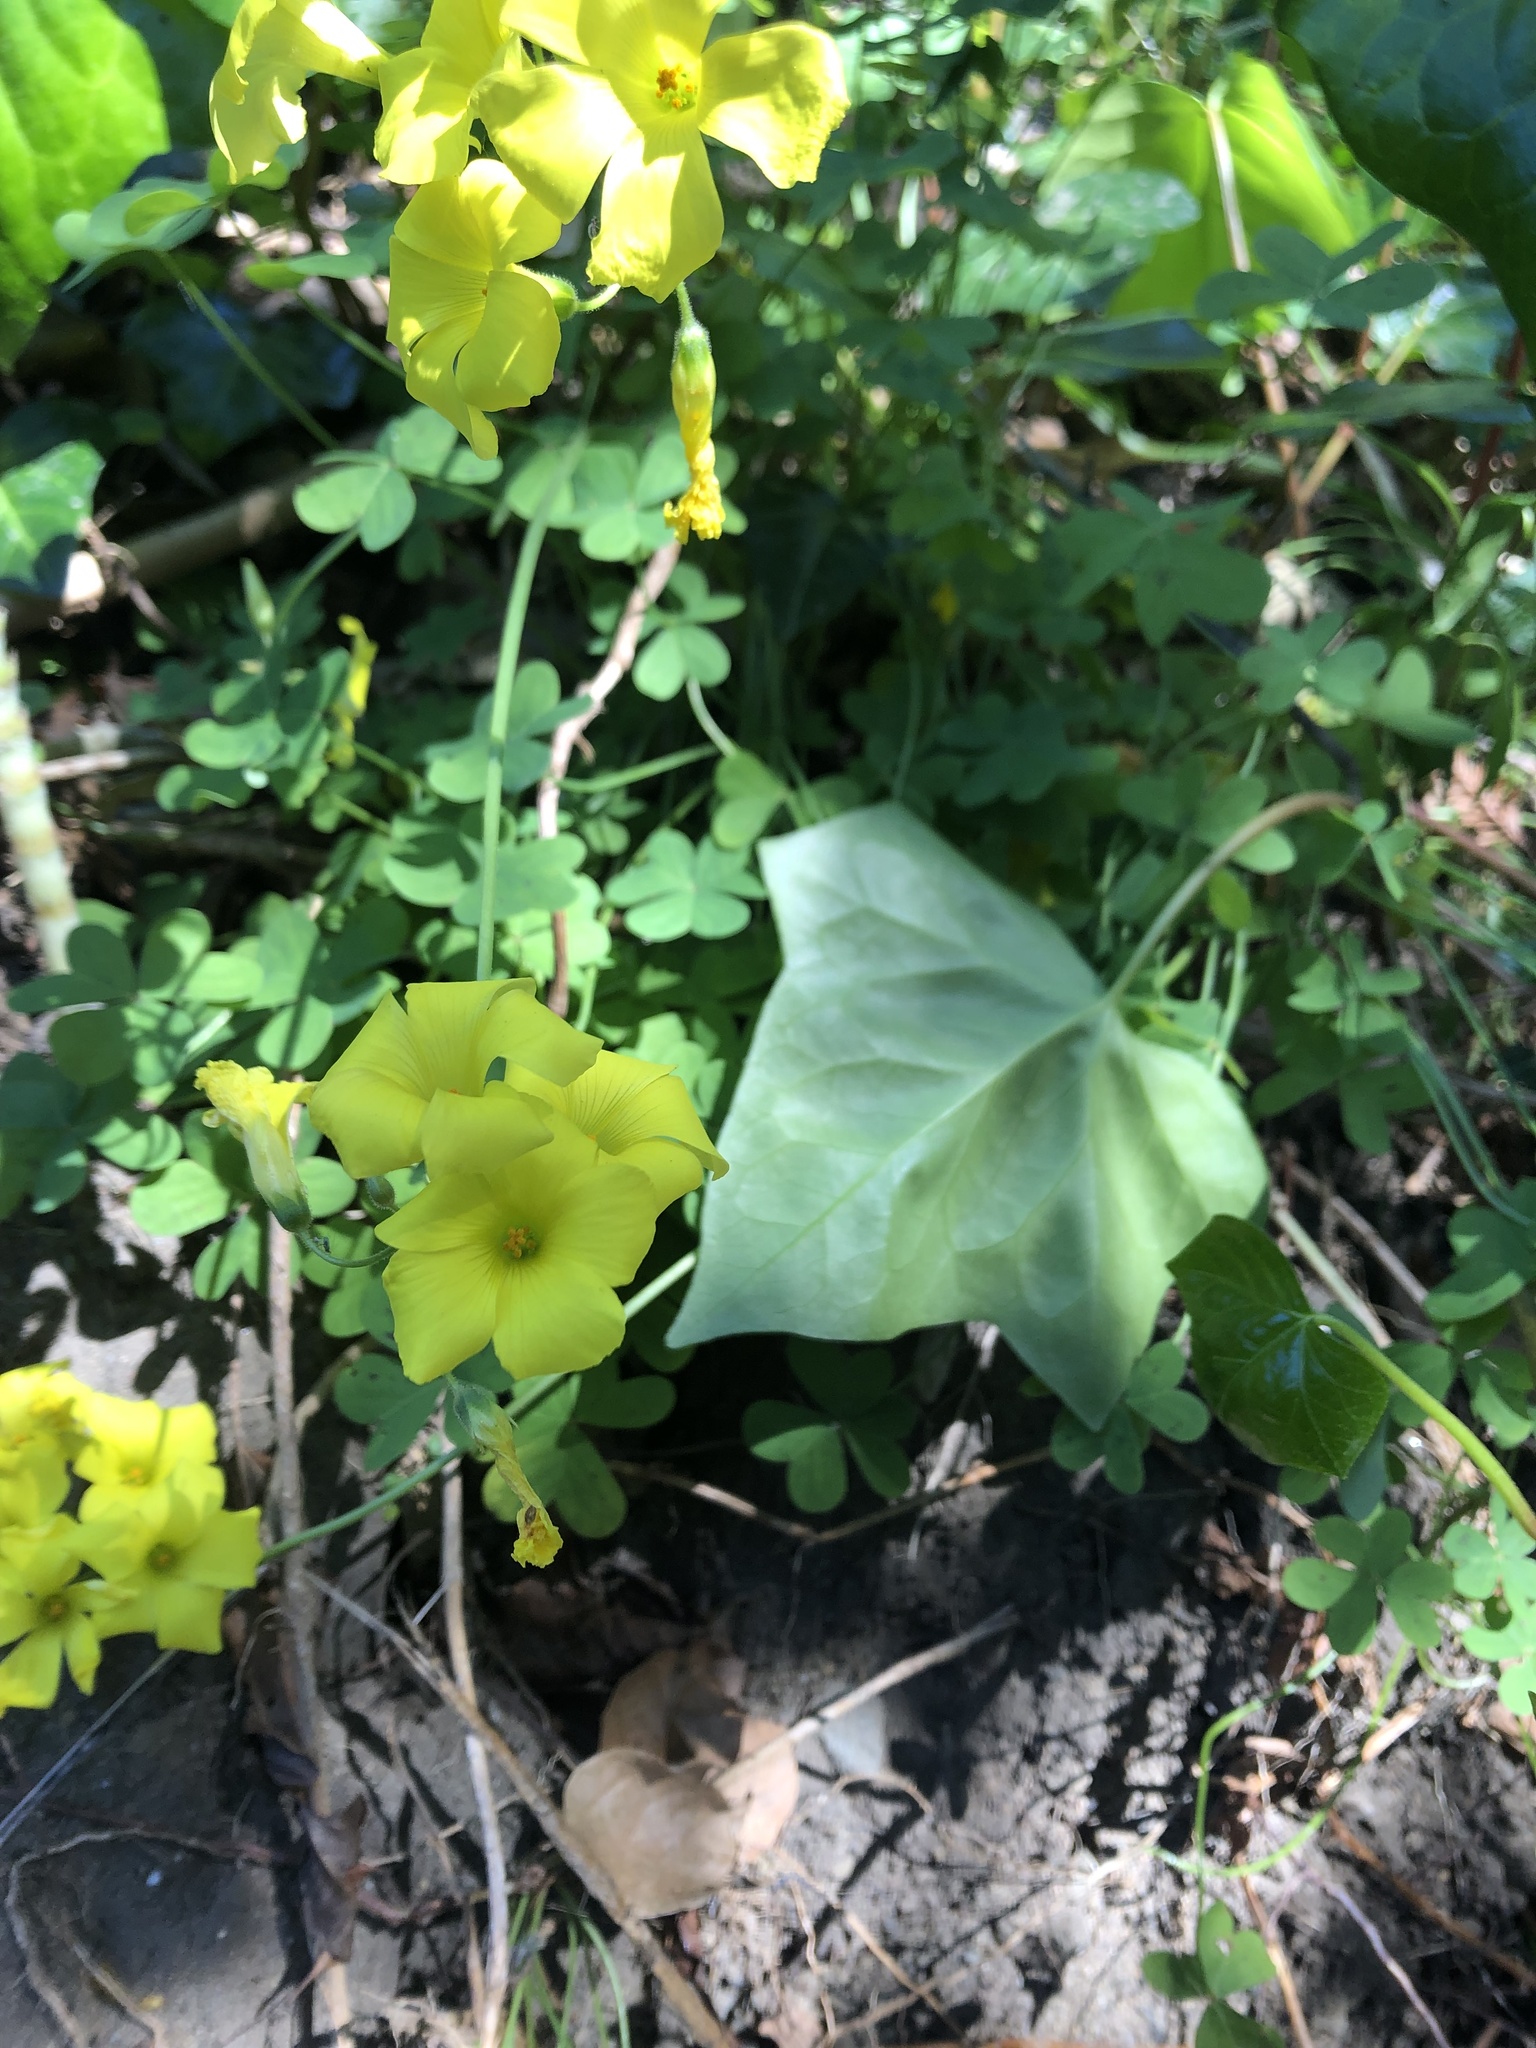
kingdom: Plantae
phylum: Tracheophyta
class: Magnoliopsida
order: Oxalidales
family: Oxalidaceae
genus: Oxalis
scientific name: Oxalis pes-caprae
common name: Bermuda-buttercup
